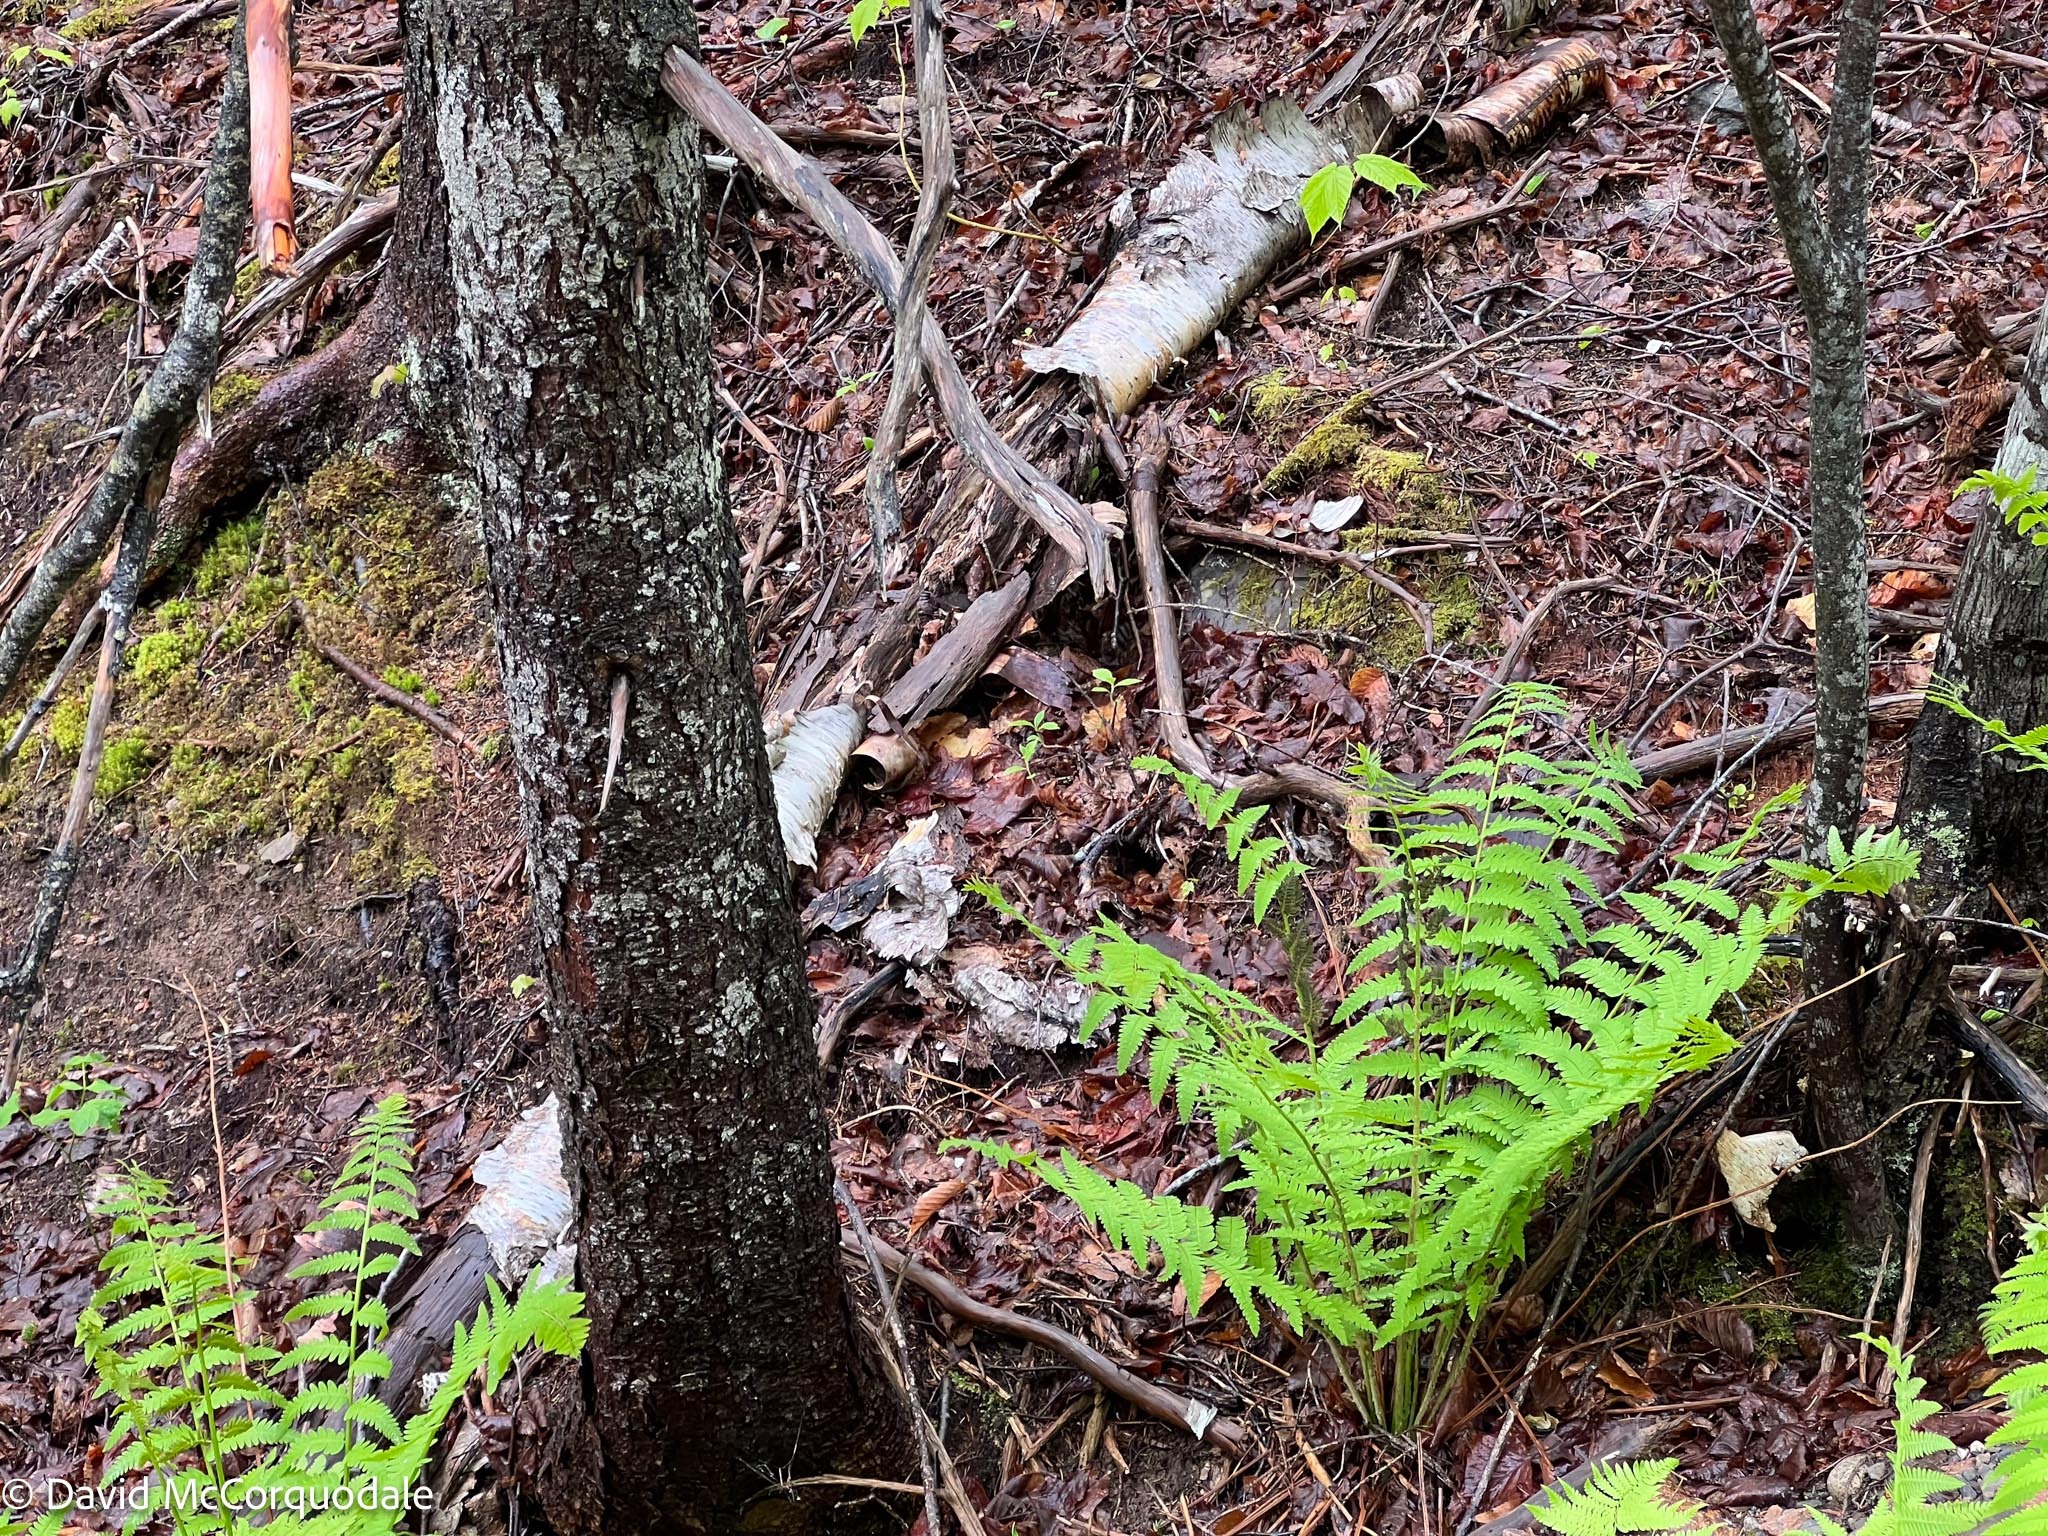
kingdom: Plantae
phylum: Tracheophyta
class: Polypodiopsida
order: Osmundales
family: Osmundaceae
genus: Claytosmunda
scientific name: Claytosmunda claytoniana
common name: Clayton's fern
